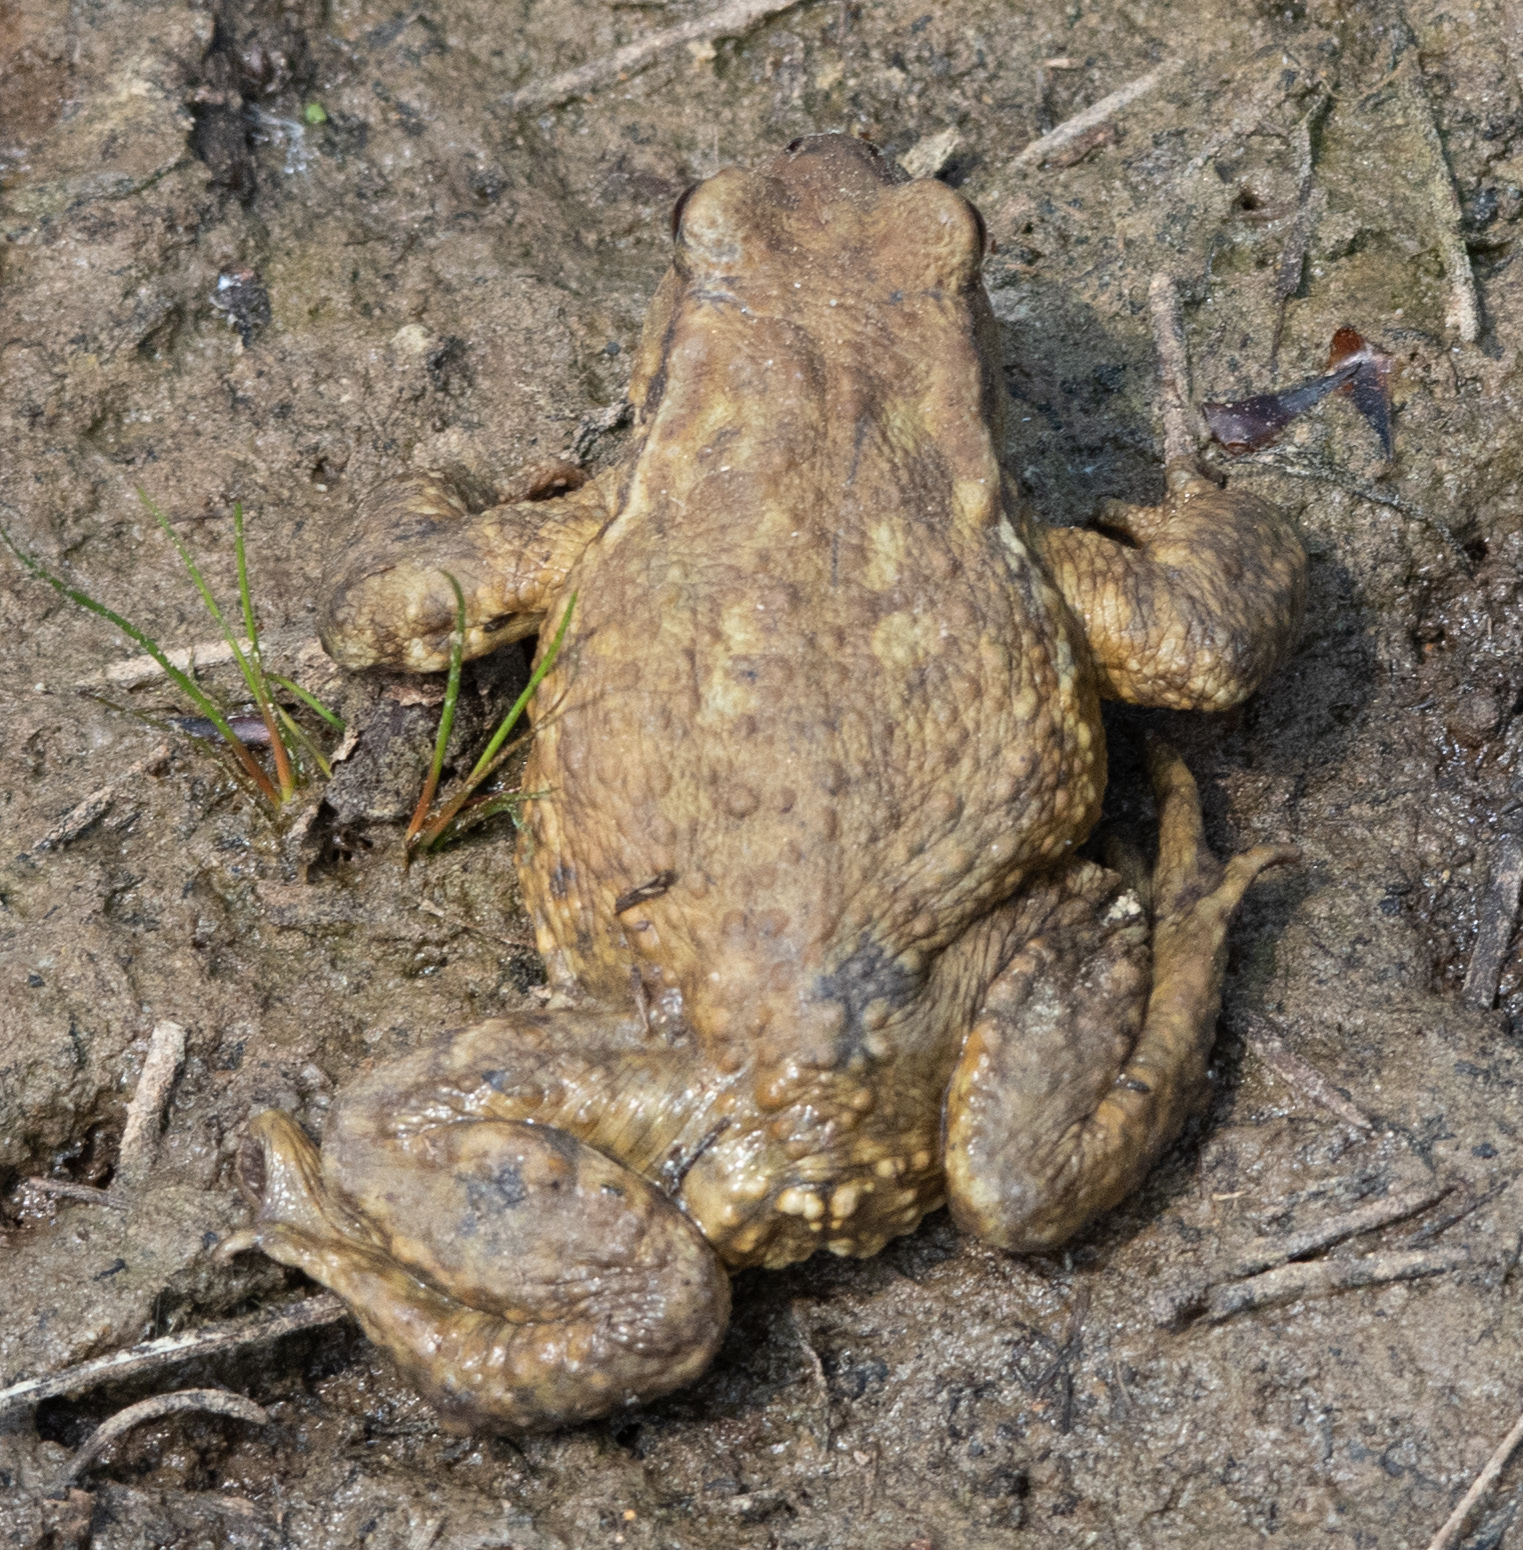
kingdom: Animalia
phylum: Chordata
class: Amphibia
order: Anura
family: Bufonidae
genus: Bufo
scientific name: Bufo spinosus
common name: Western common toad
